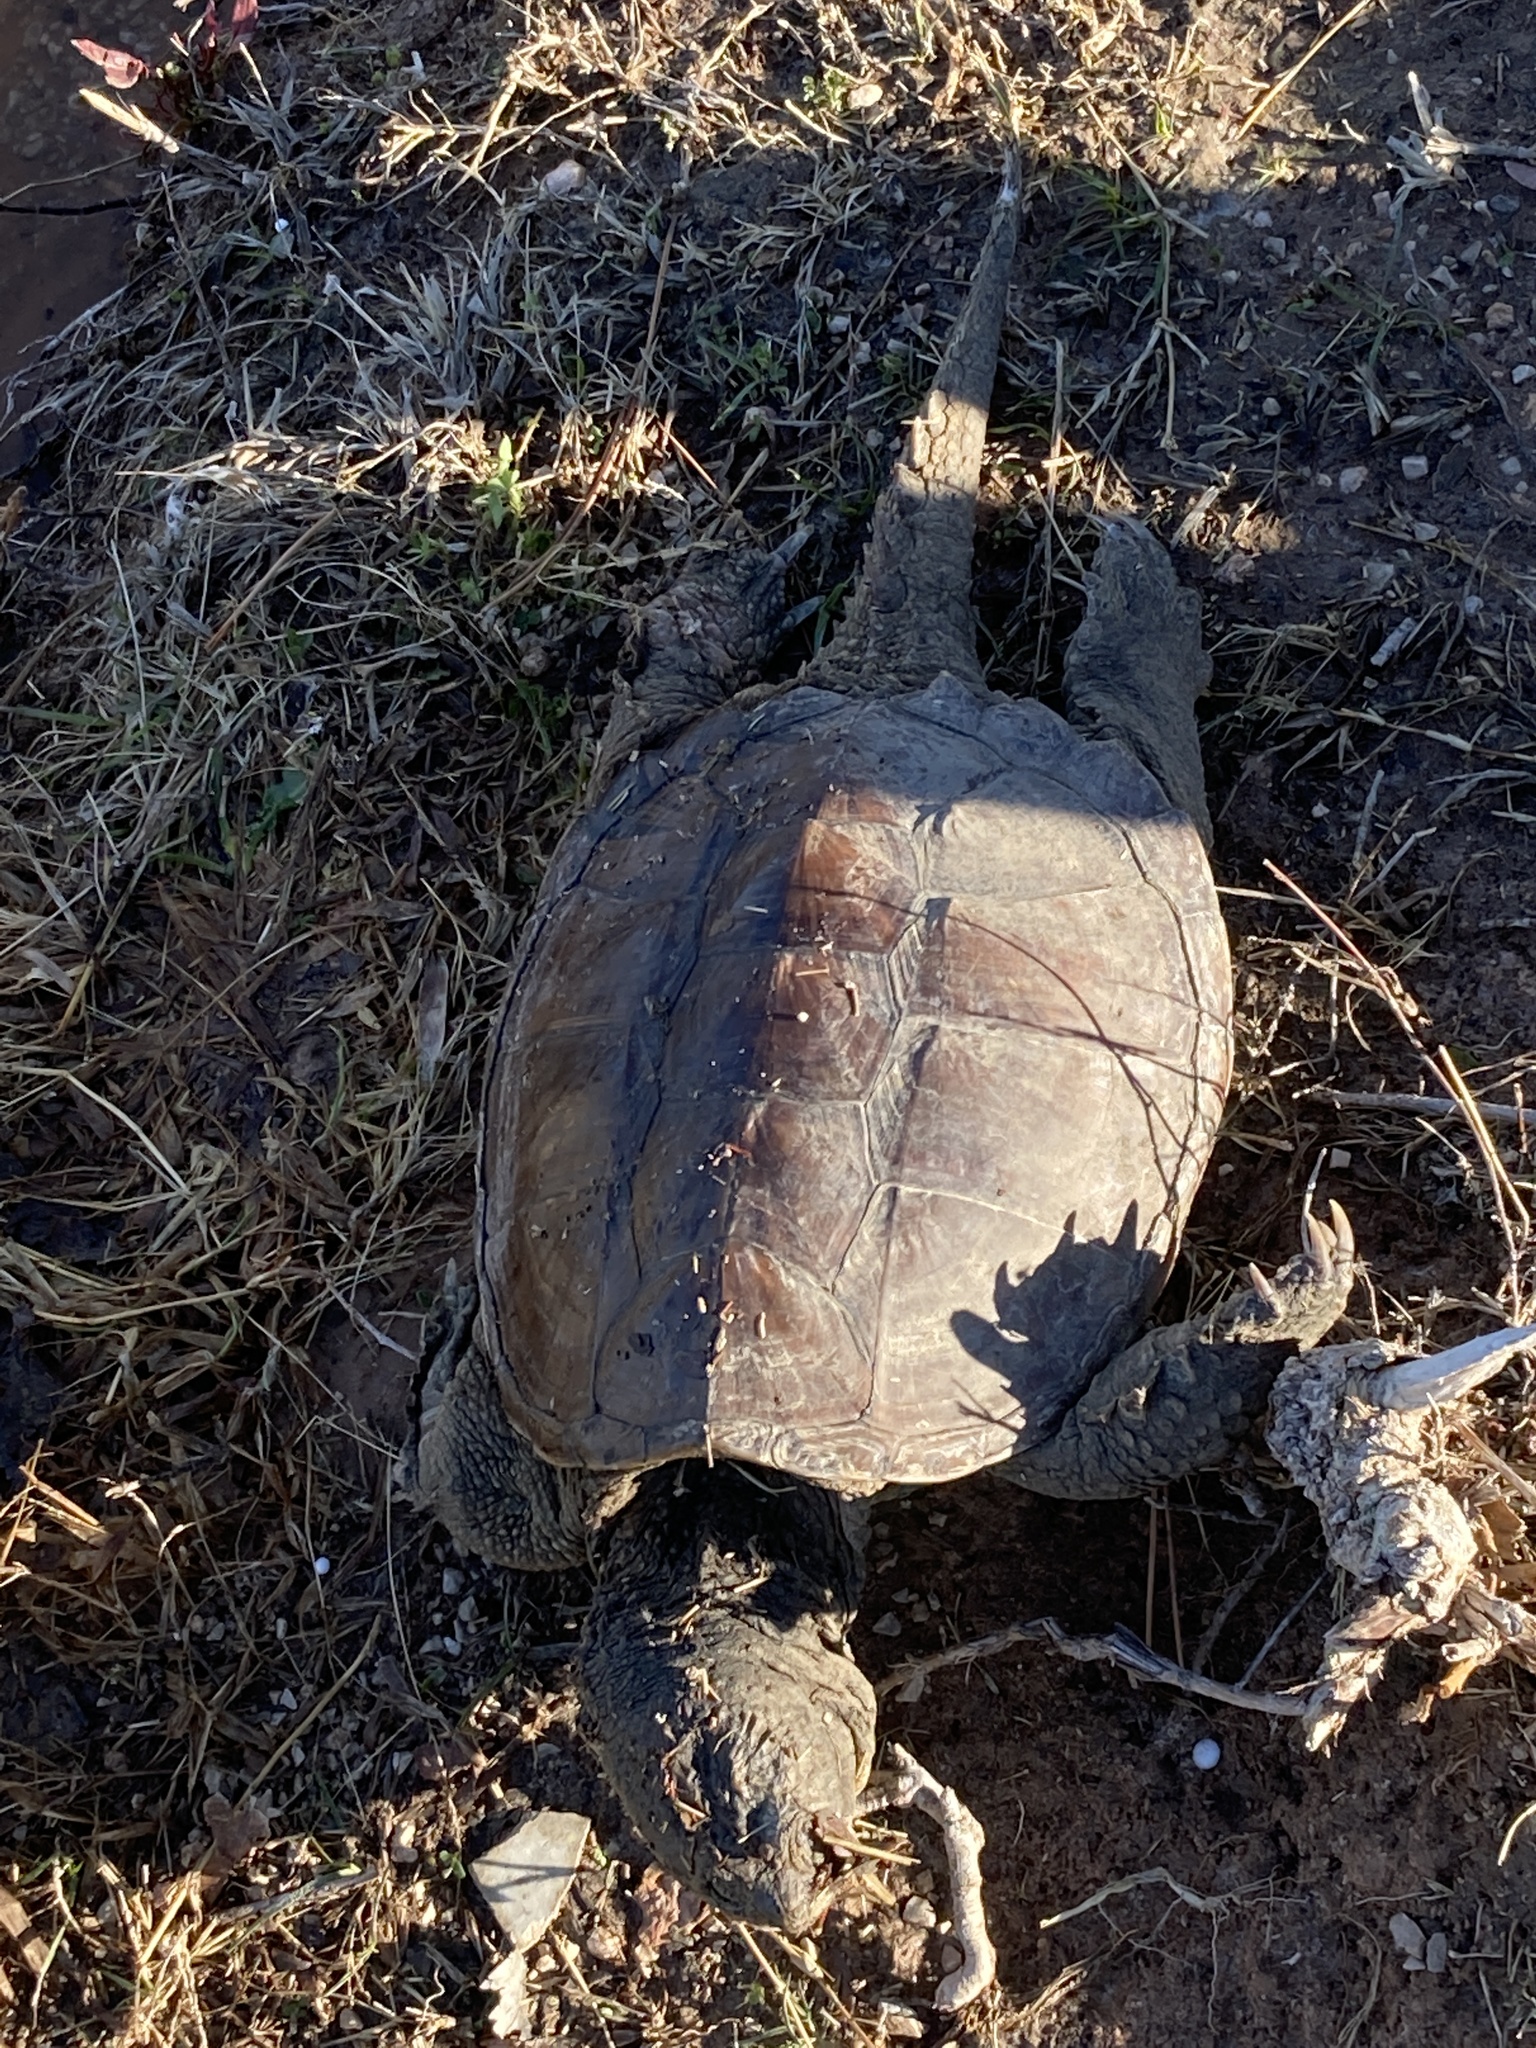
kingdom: Animalia
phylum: Chordata
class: Testudines
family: Chelydridae
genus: Chelydra
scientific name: Chelydra serpentina
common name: Common snapping turtle
